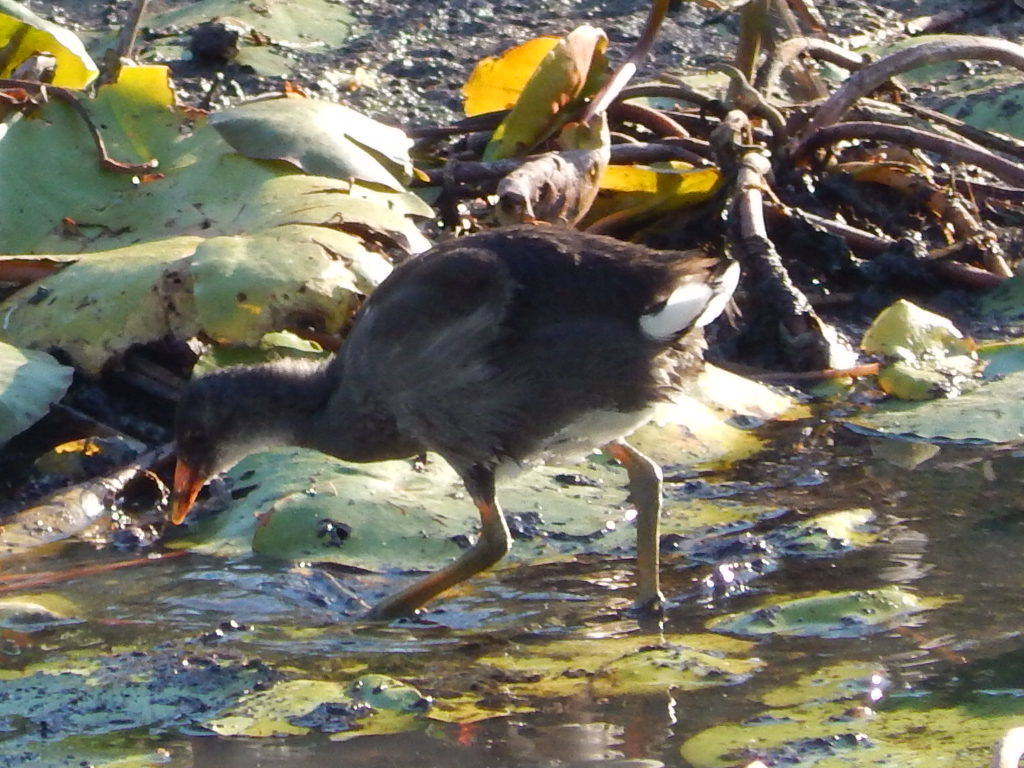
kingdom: Animalia
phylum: Chordata
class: Aves
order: Gruiformes
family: Rallidae
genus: Gallinula
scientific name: Gallinula chloropus
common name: Common moorhen
